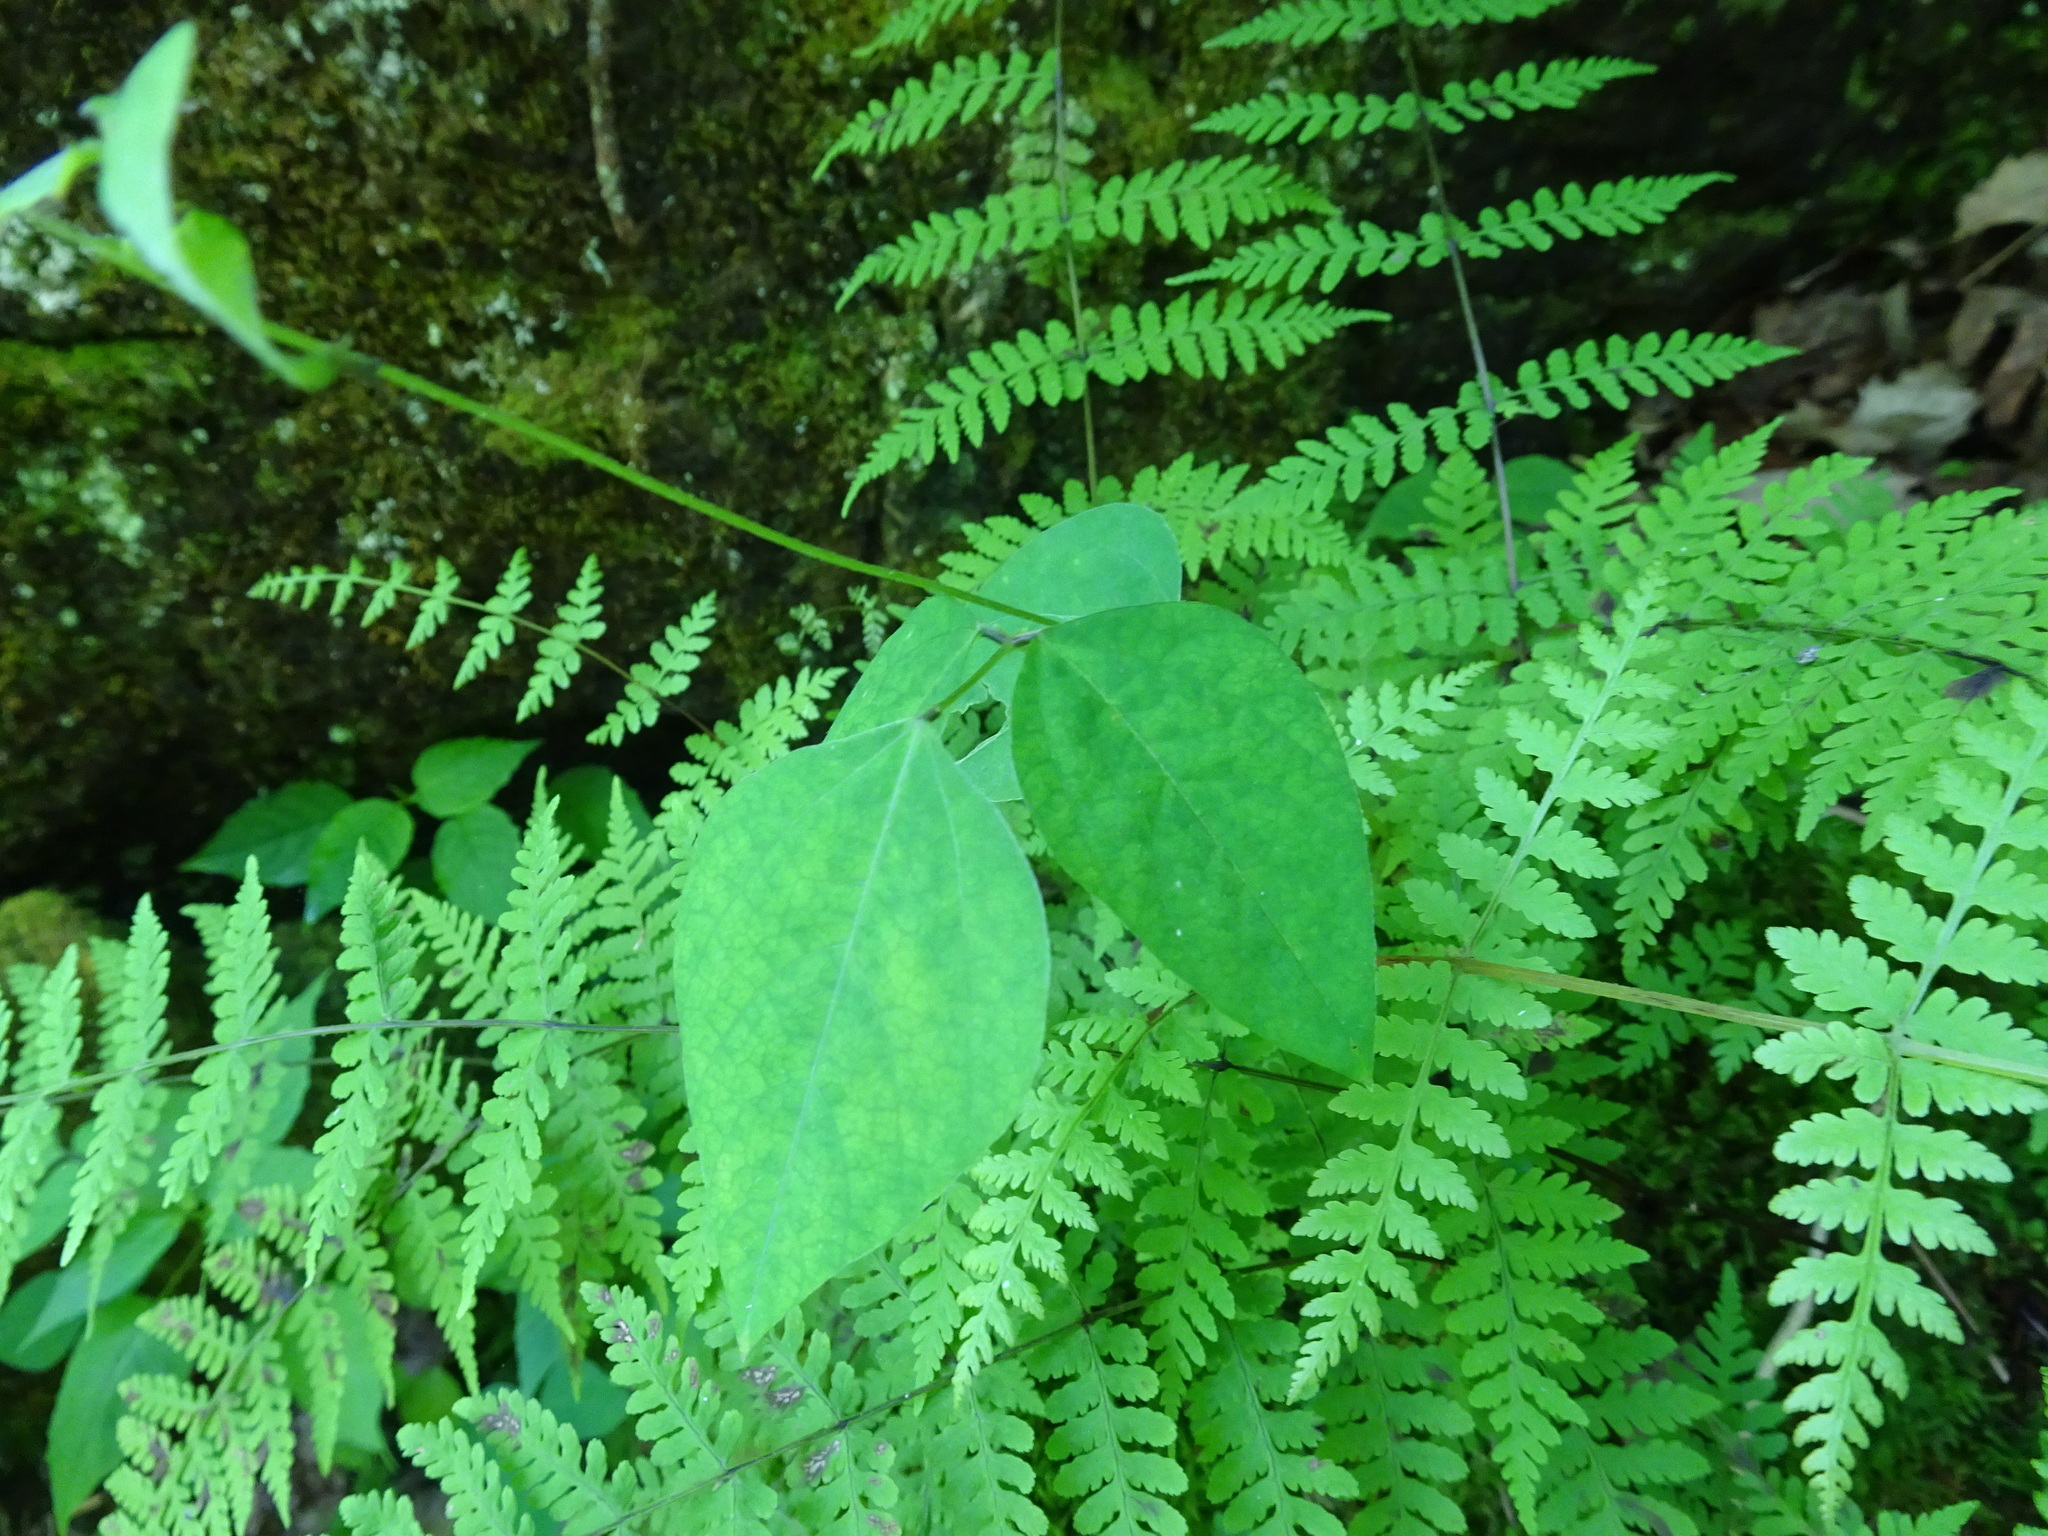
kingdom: Plantae
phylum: Tracheophyta
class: Magnoliopsida
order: Fabales
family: Fabaceae
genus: Amphicarpaea
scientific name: Amphicarpaea bracteata
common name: American hog peanut
